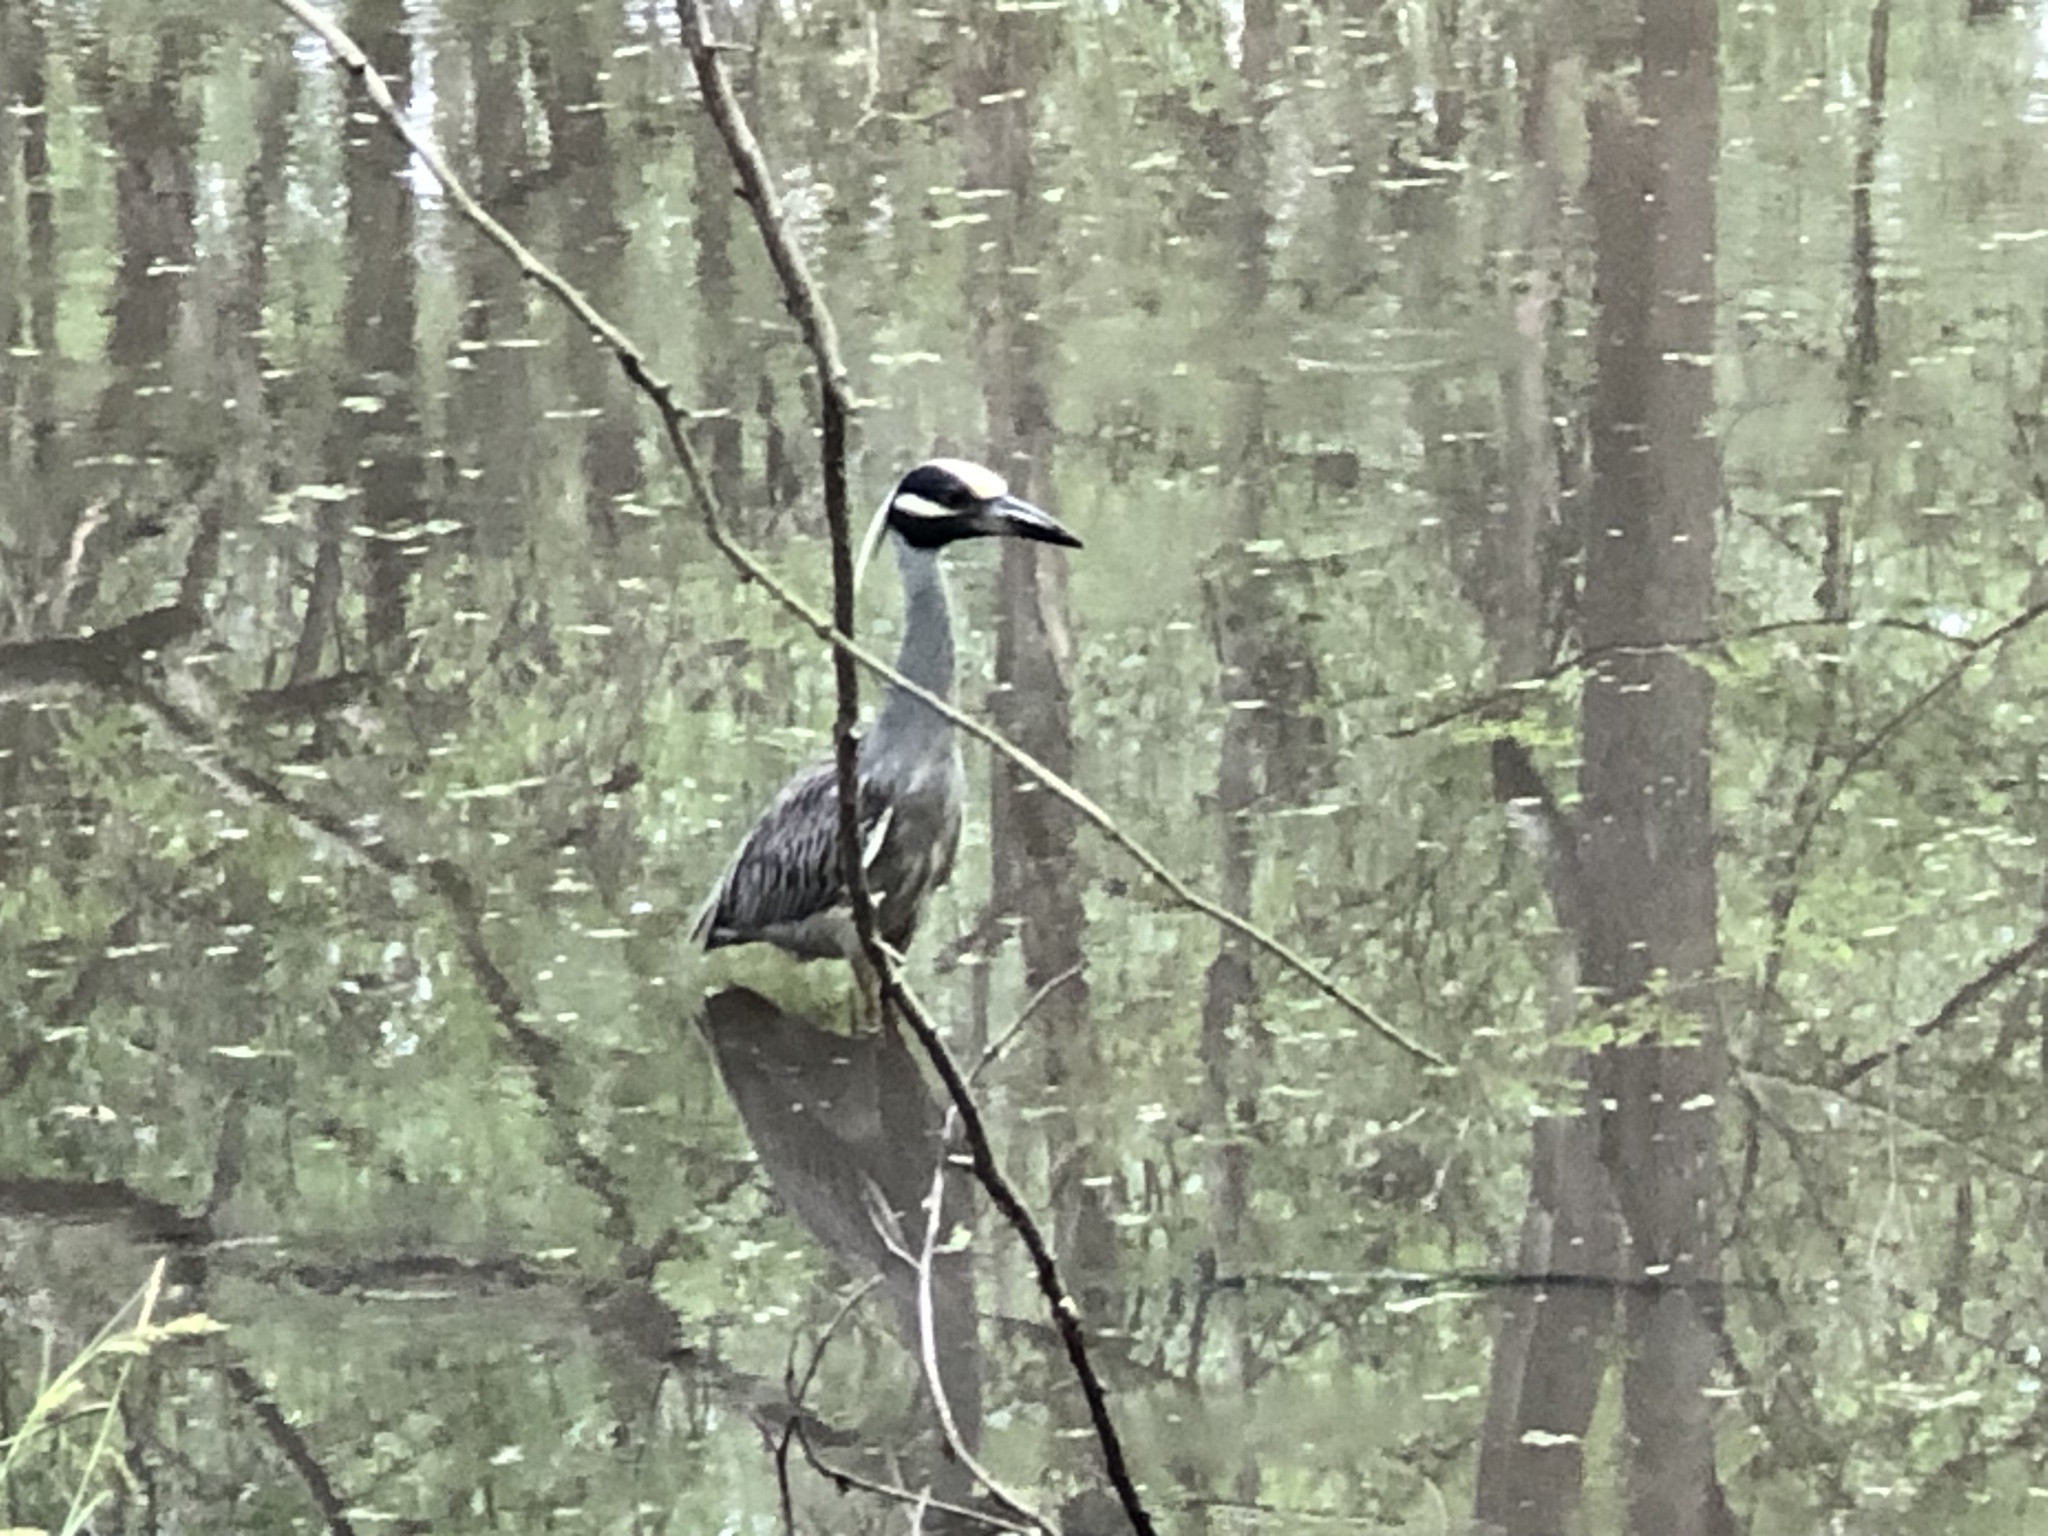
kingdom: Animalia
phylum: Chordata
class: Aves
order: Pelecaniformes
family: Ardeidae
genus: Nyctanassa
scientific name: Nyctanassa violacea
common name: Yellow-crowned night heron
